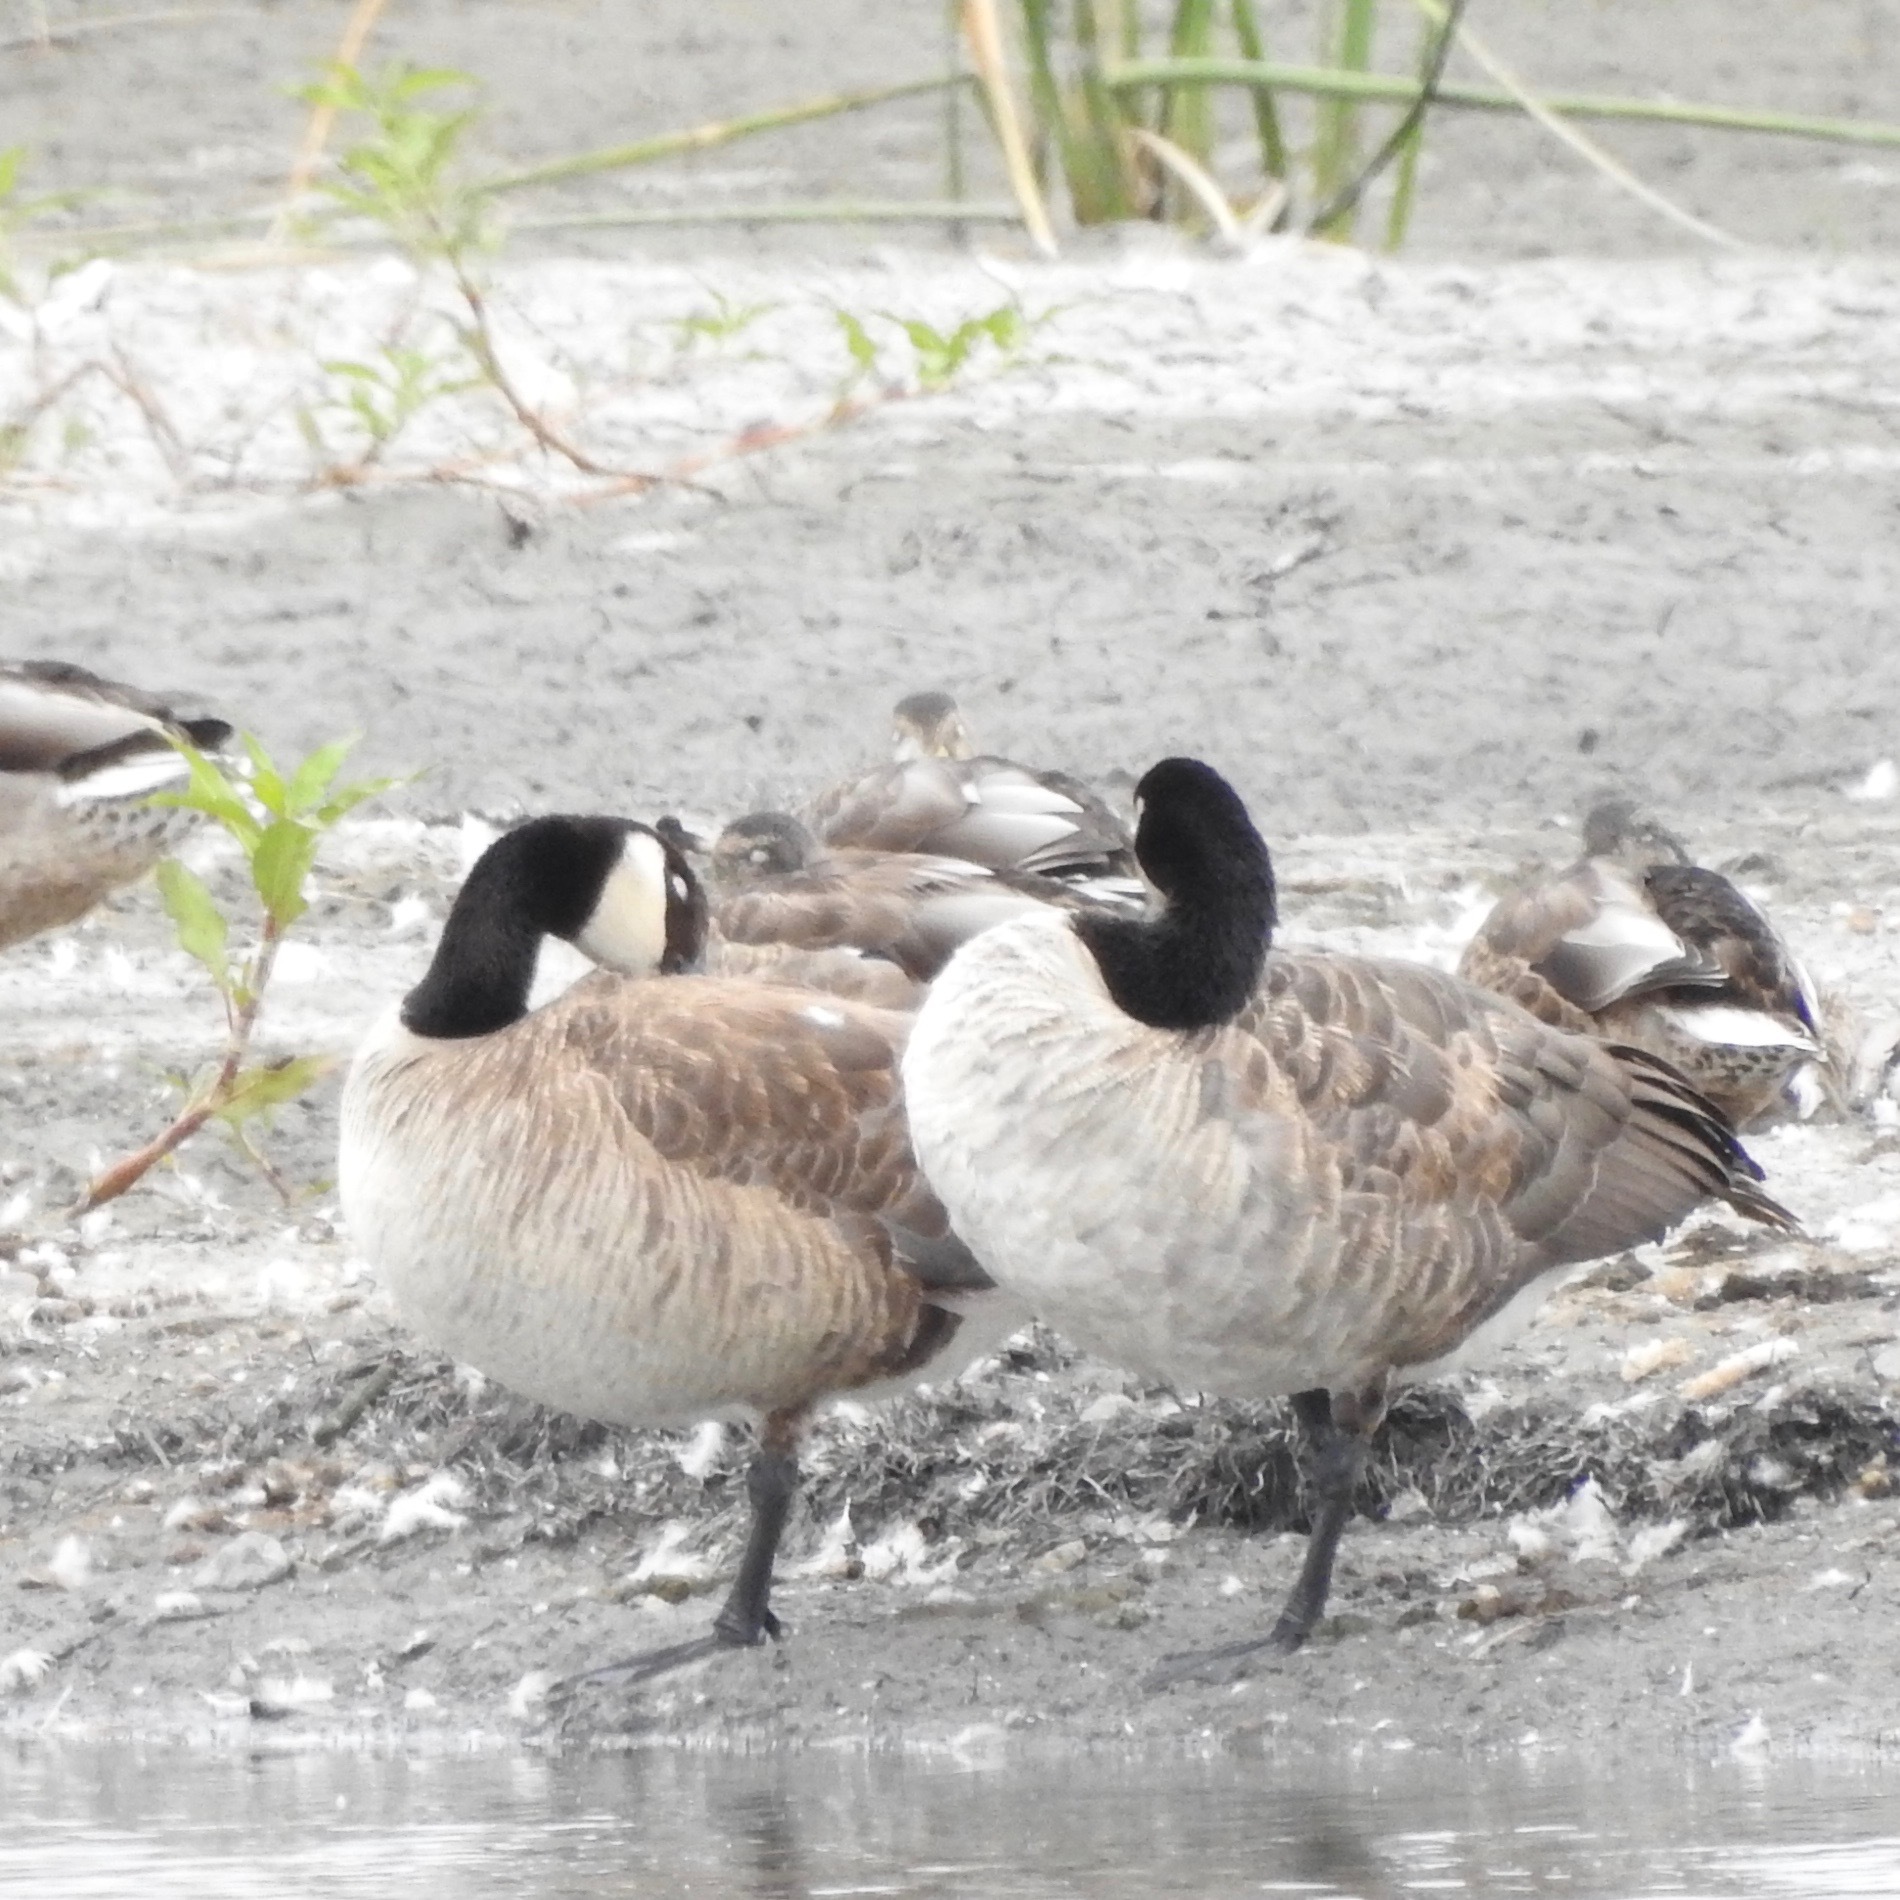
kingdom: Animalia
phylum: Chordata
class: Aves
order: Anseriformes
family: Anatidae
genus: Branta
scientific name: Branta canadensis
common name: Canada goose
